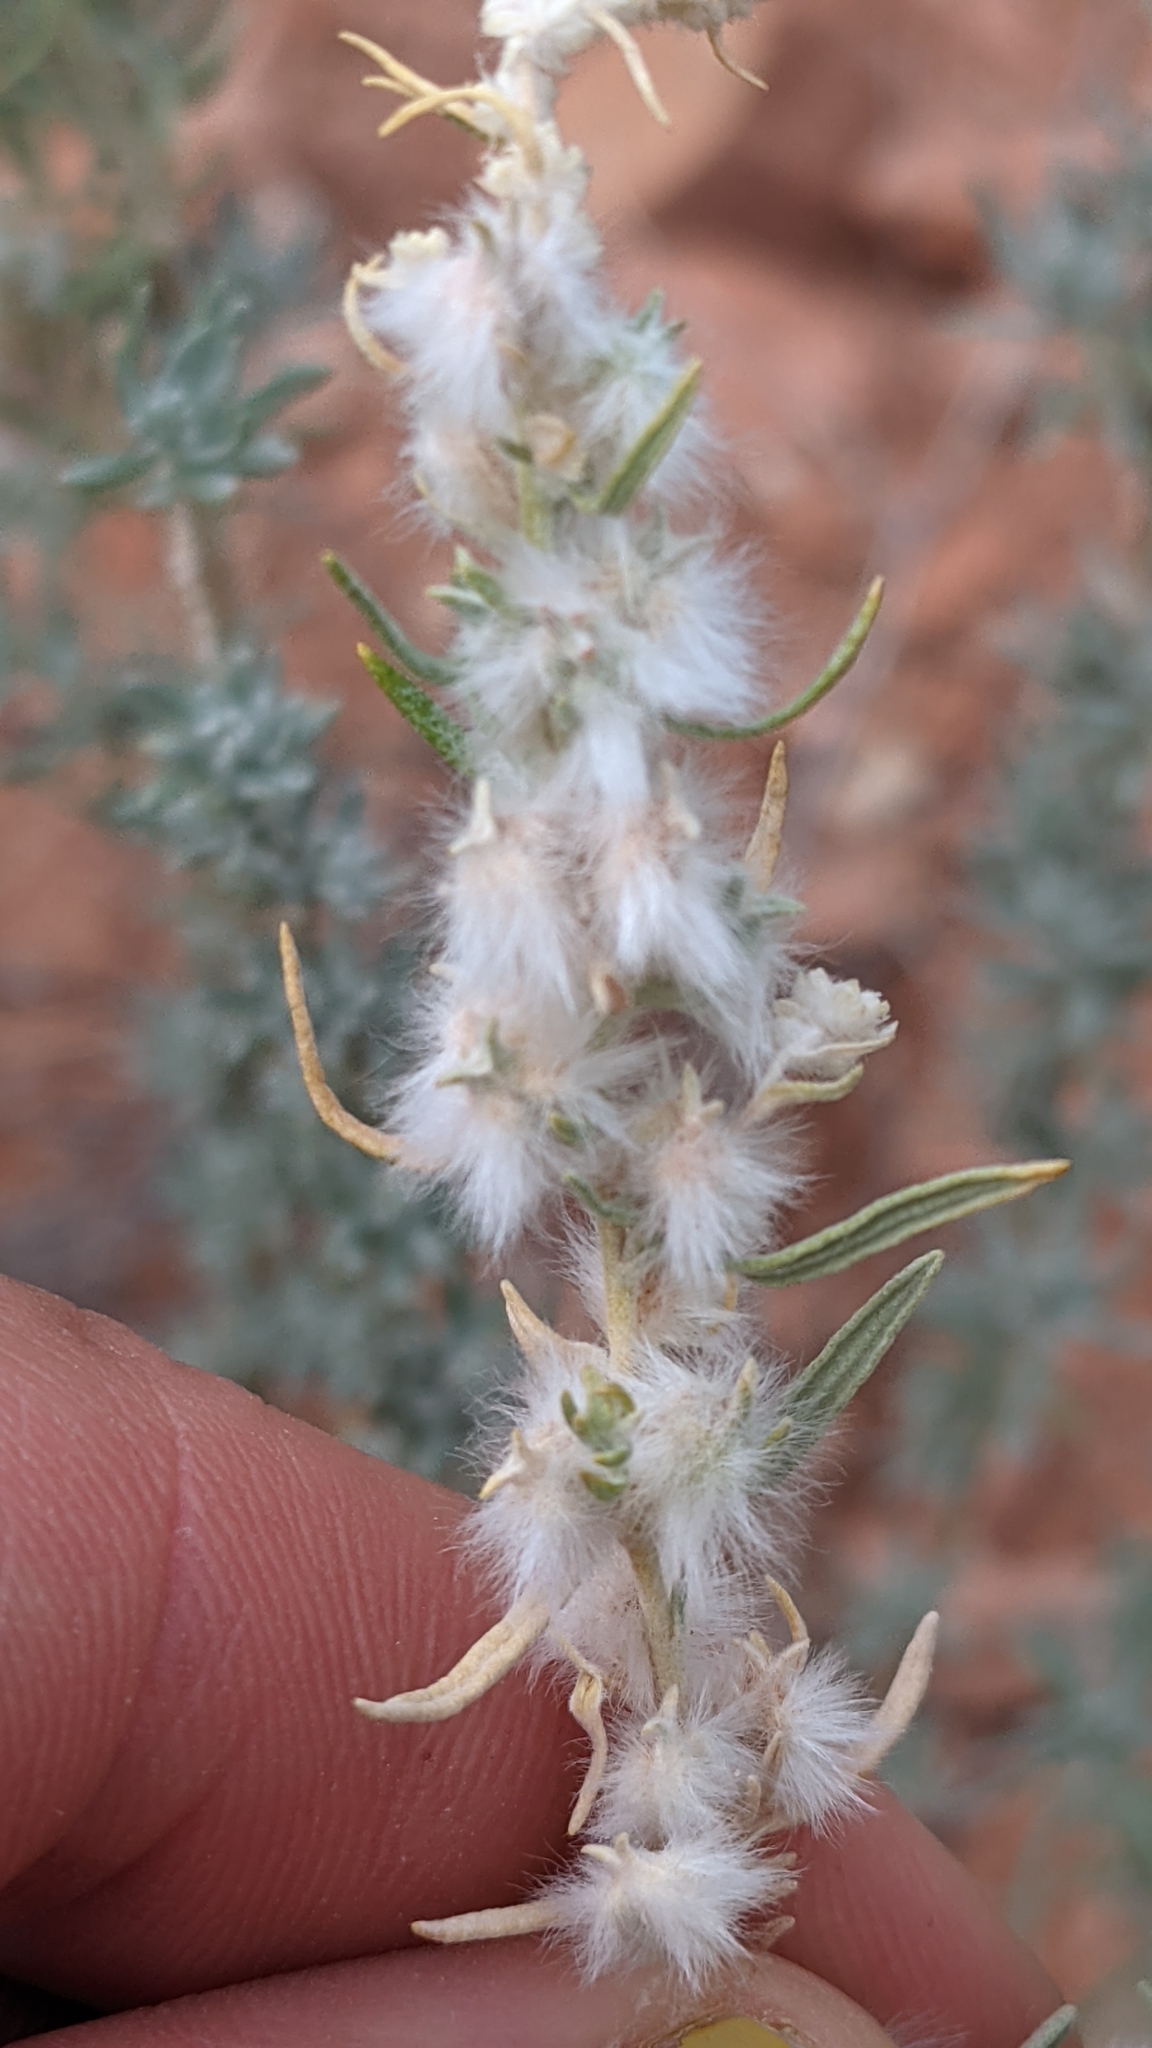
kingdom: Plantae
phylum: Tracheophyta
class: Magnoliopsida
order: Caryophyllales
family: Amaranthaceae
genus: Krascheninnikovia
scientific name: Krascheninnikovia lanata
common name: Winterfat
